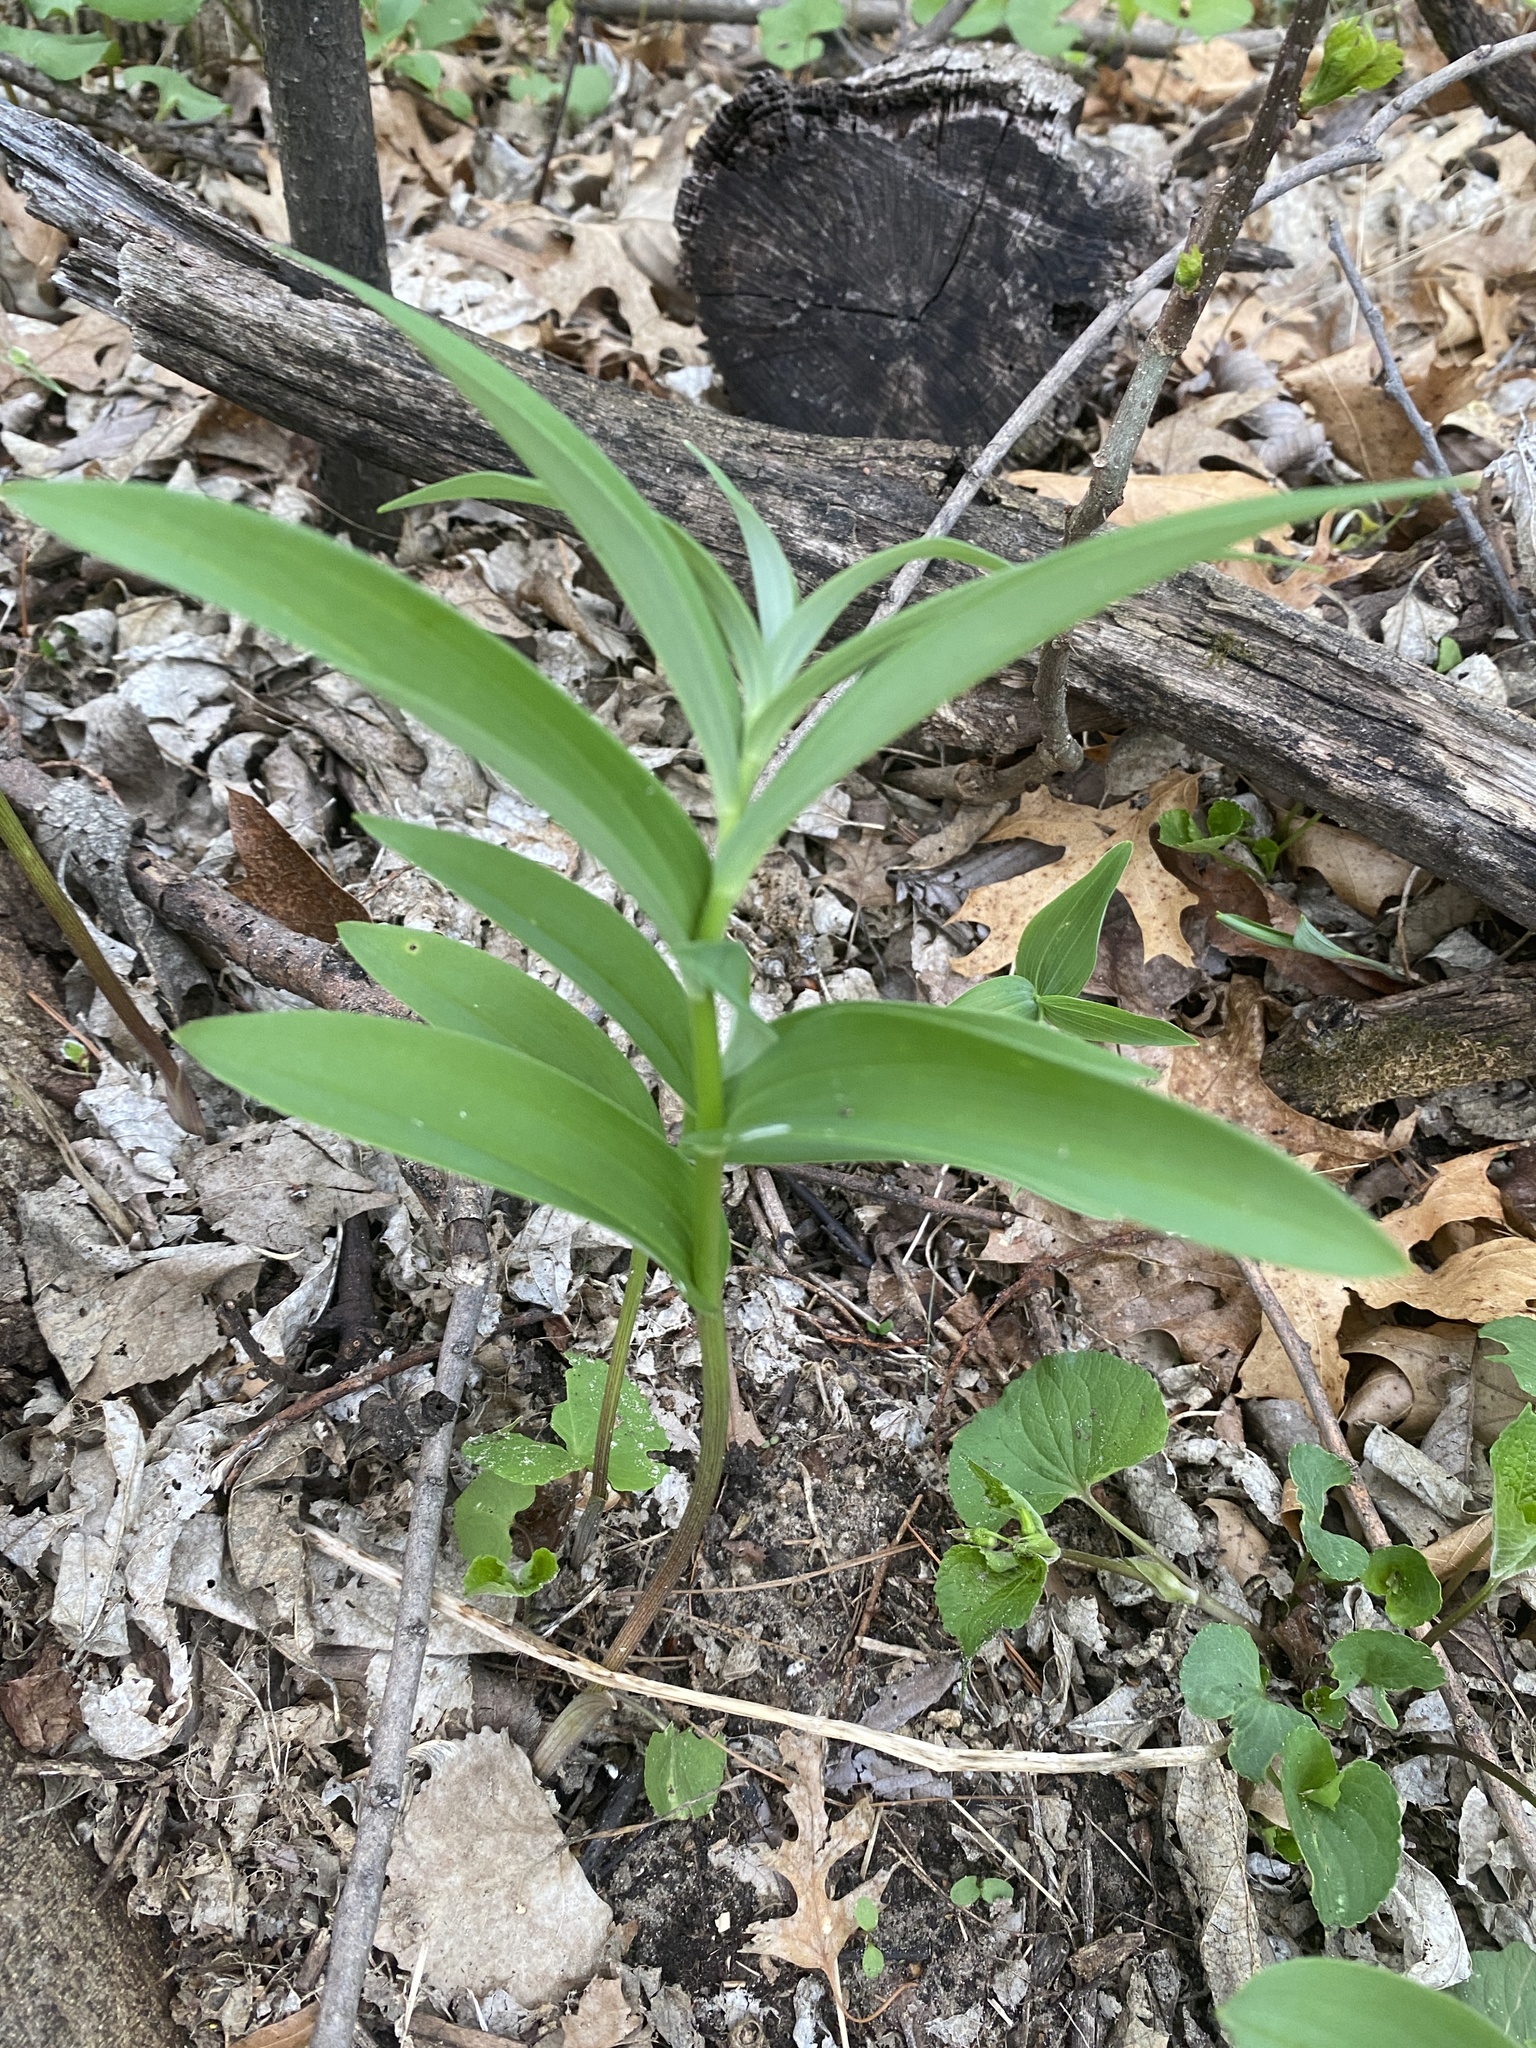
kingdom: Plantae
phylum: Tracheophyta
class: Liliopsida
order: Asparagales
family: Asparagaceae
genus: Maianthemum
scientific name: Maianthemum stellatum
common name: Little false solomon's seal
